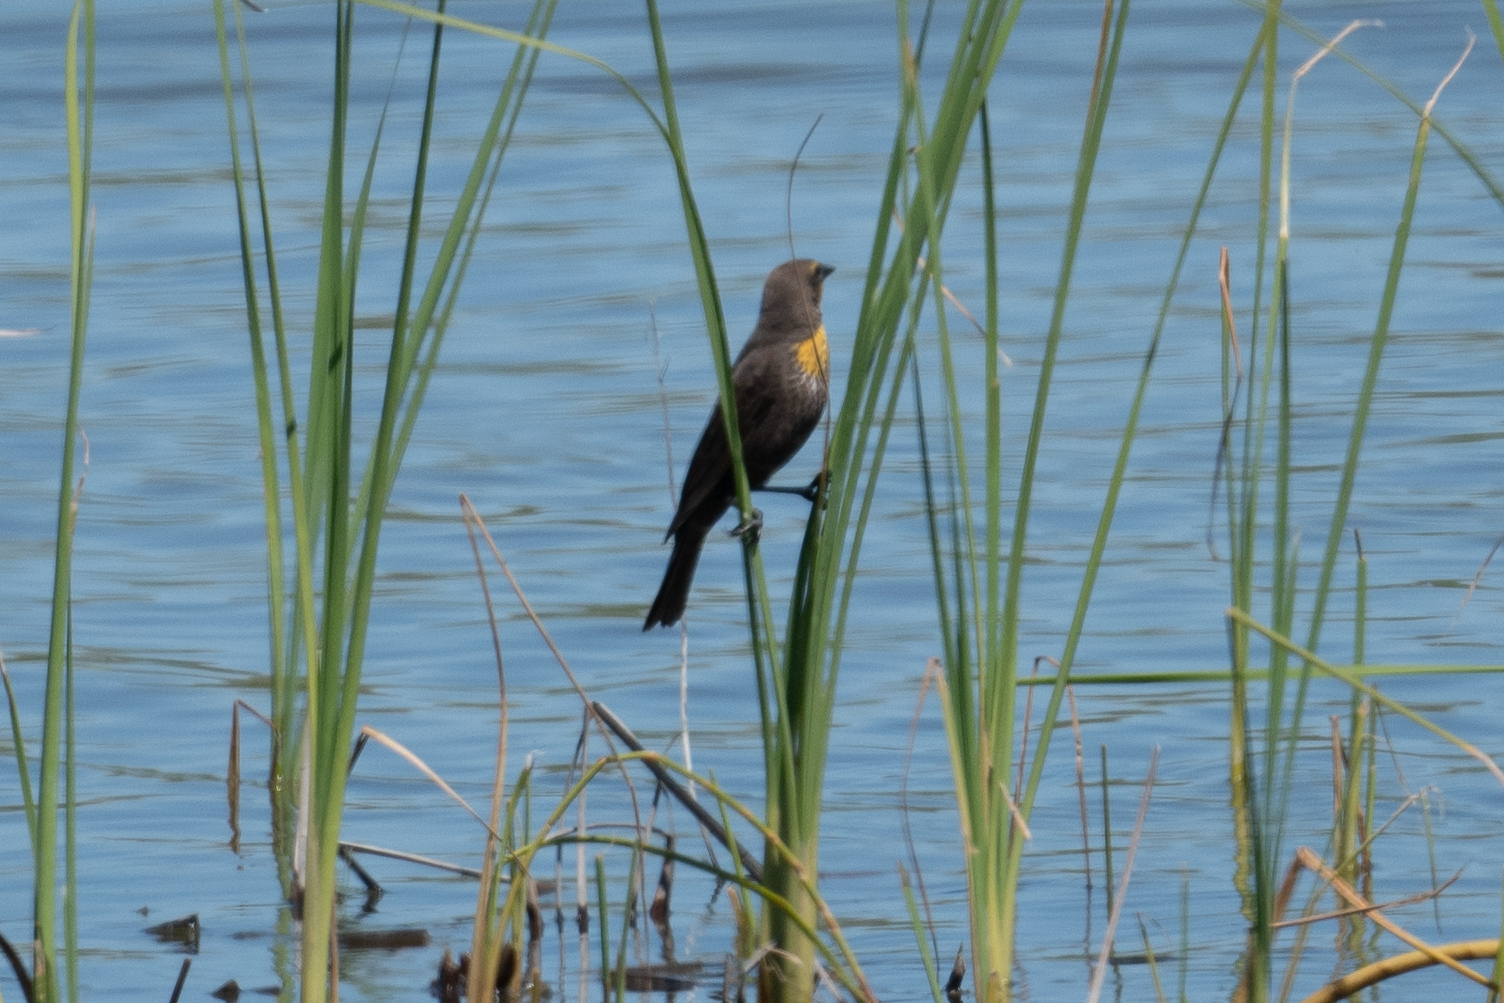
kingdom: Animalia
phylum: Chordata
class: Aves
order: Passeriformes
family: Icteridae
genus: Xanthocephalus
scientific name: Xanthocephalus xanthocephalus
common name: Yellow-headed blackbird
